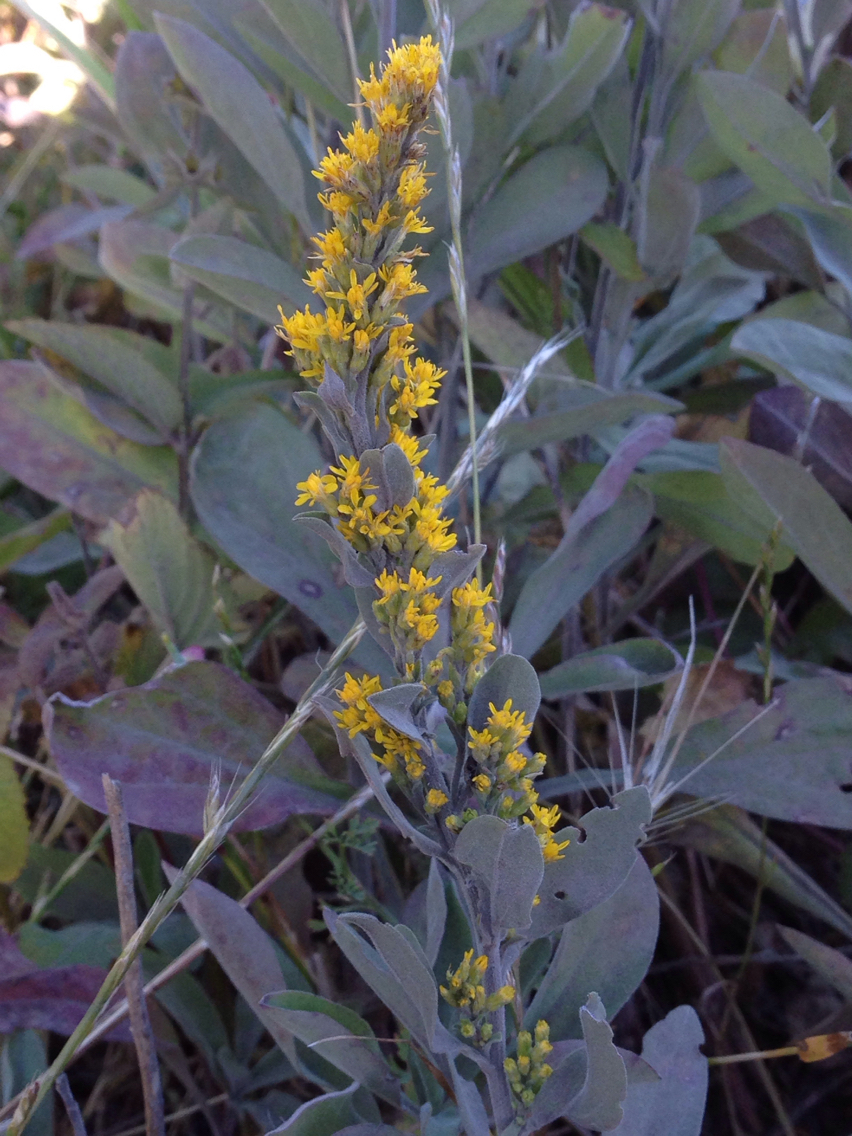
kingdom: Plantae
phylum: Tracheophyta
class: Magnoliopsida
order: Asterales
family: Asteraceae
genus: Solidago
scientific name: Solidago californica
